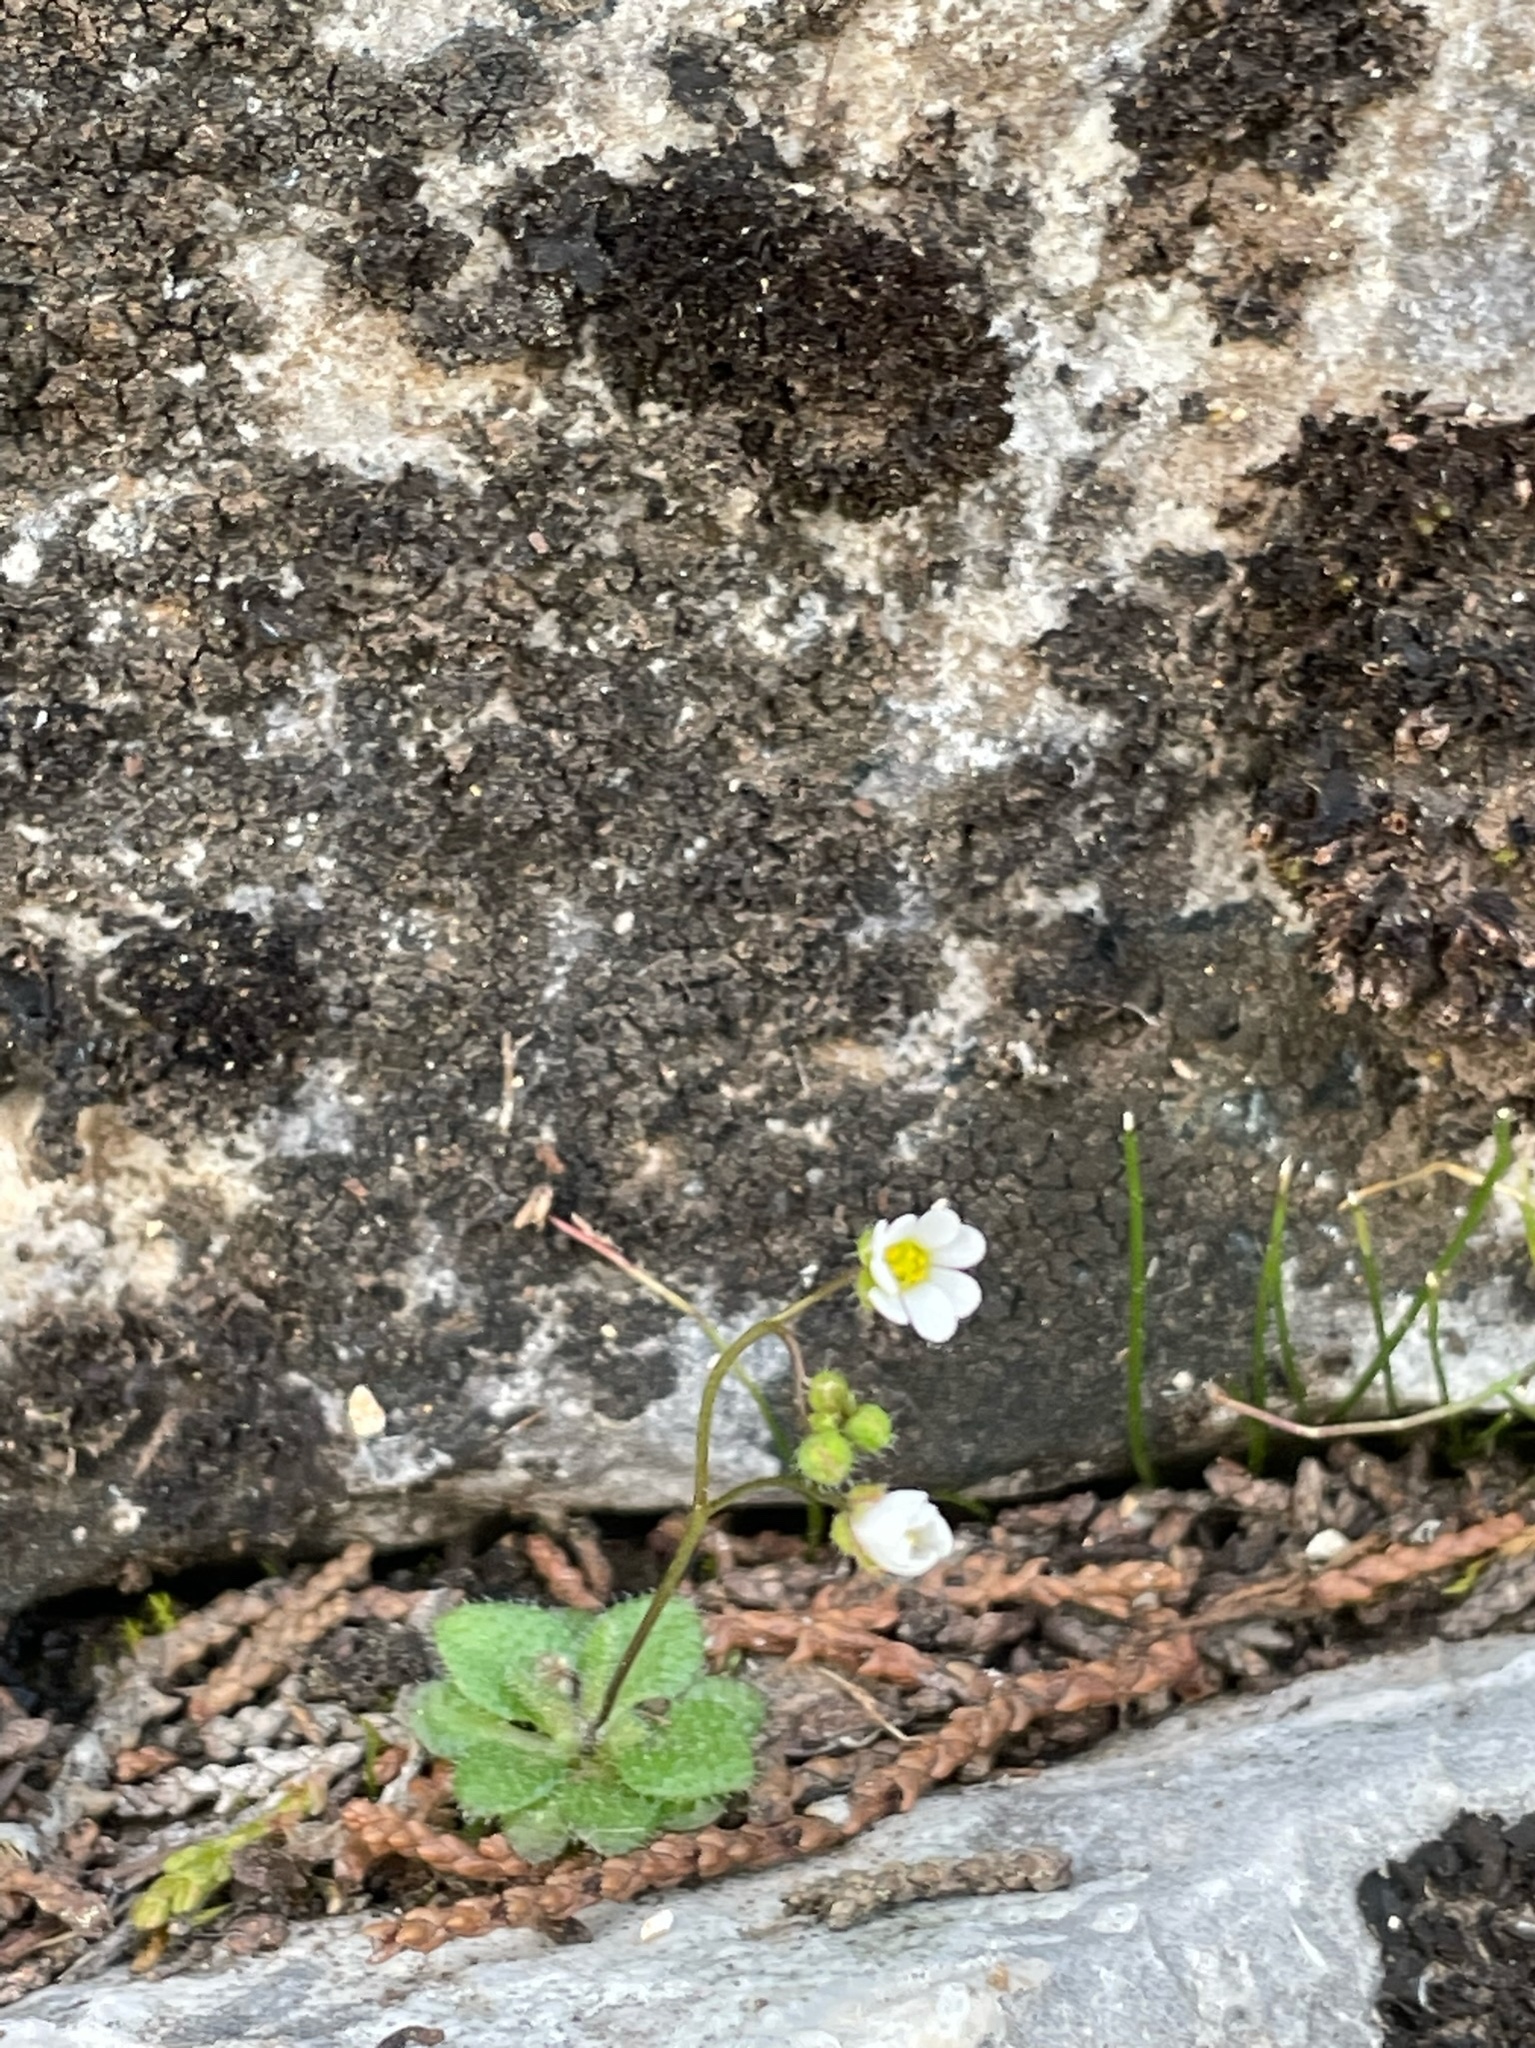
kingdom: Plantae
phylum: Tracheophyta
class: Magnoliopsida
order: Brassicales
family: Brassicaceae
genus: Draba
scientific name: Draba verna
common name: Spring draba
